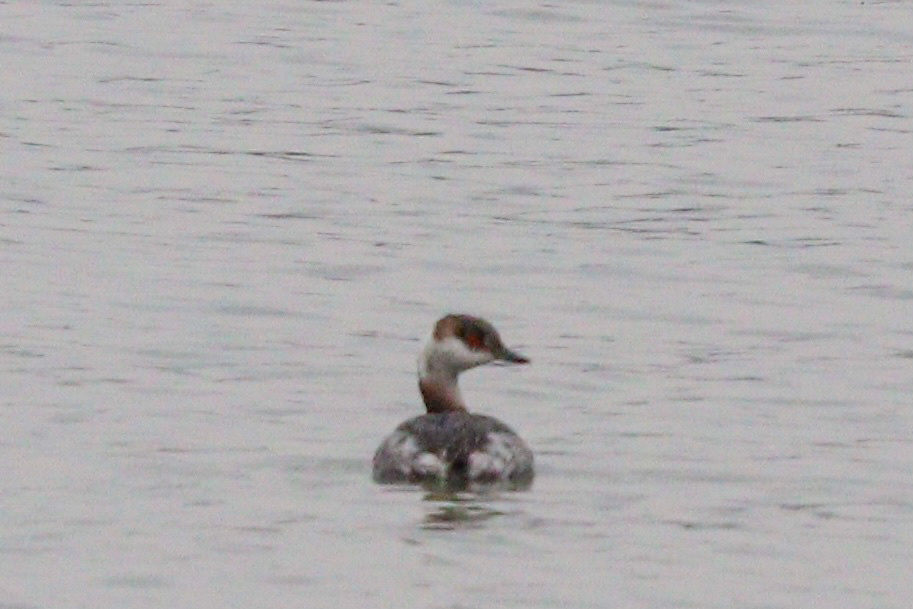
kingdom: Animalia
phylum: Chordata
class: Aves
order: Podicipediformes
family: Podicipedidae
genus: Podiceps
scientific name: Podiceps auritus
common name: Horned grebe
